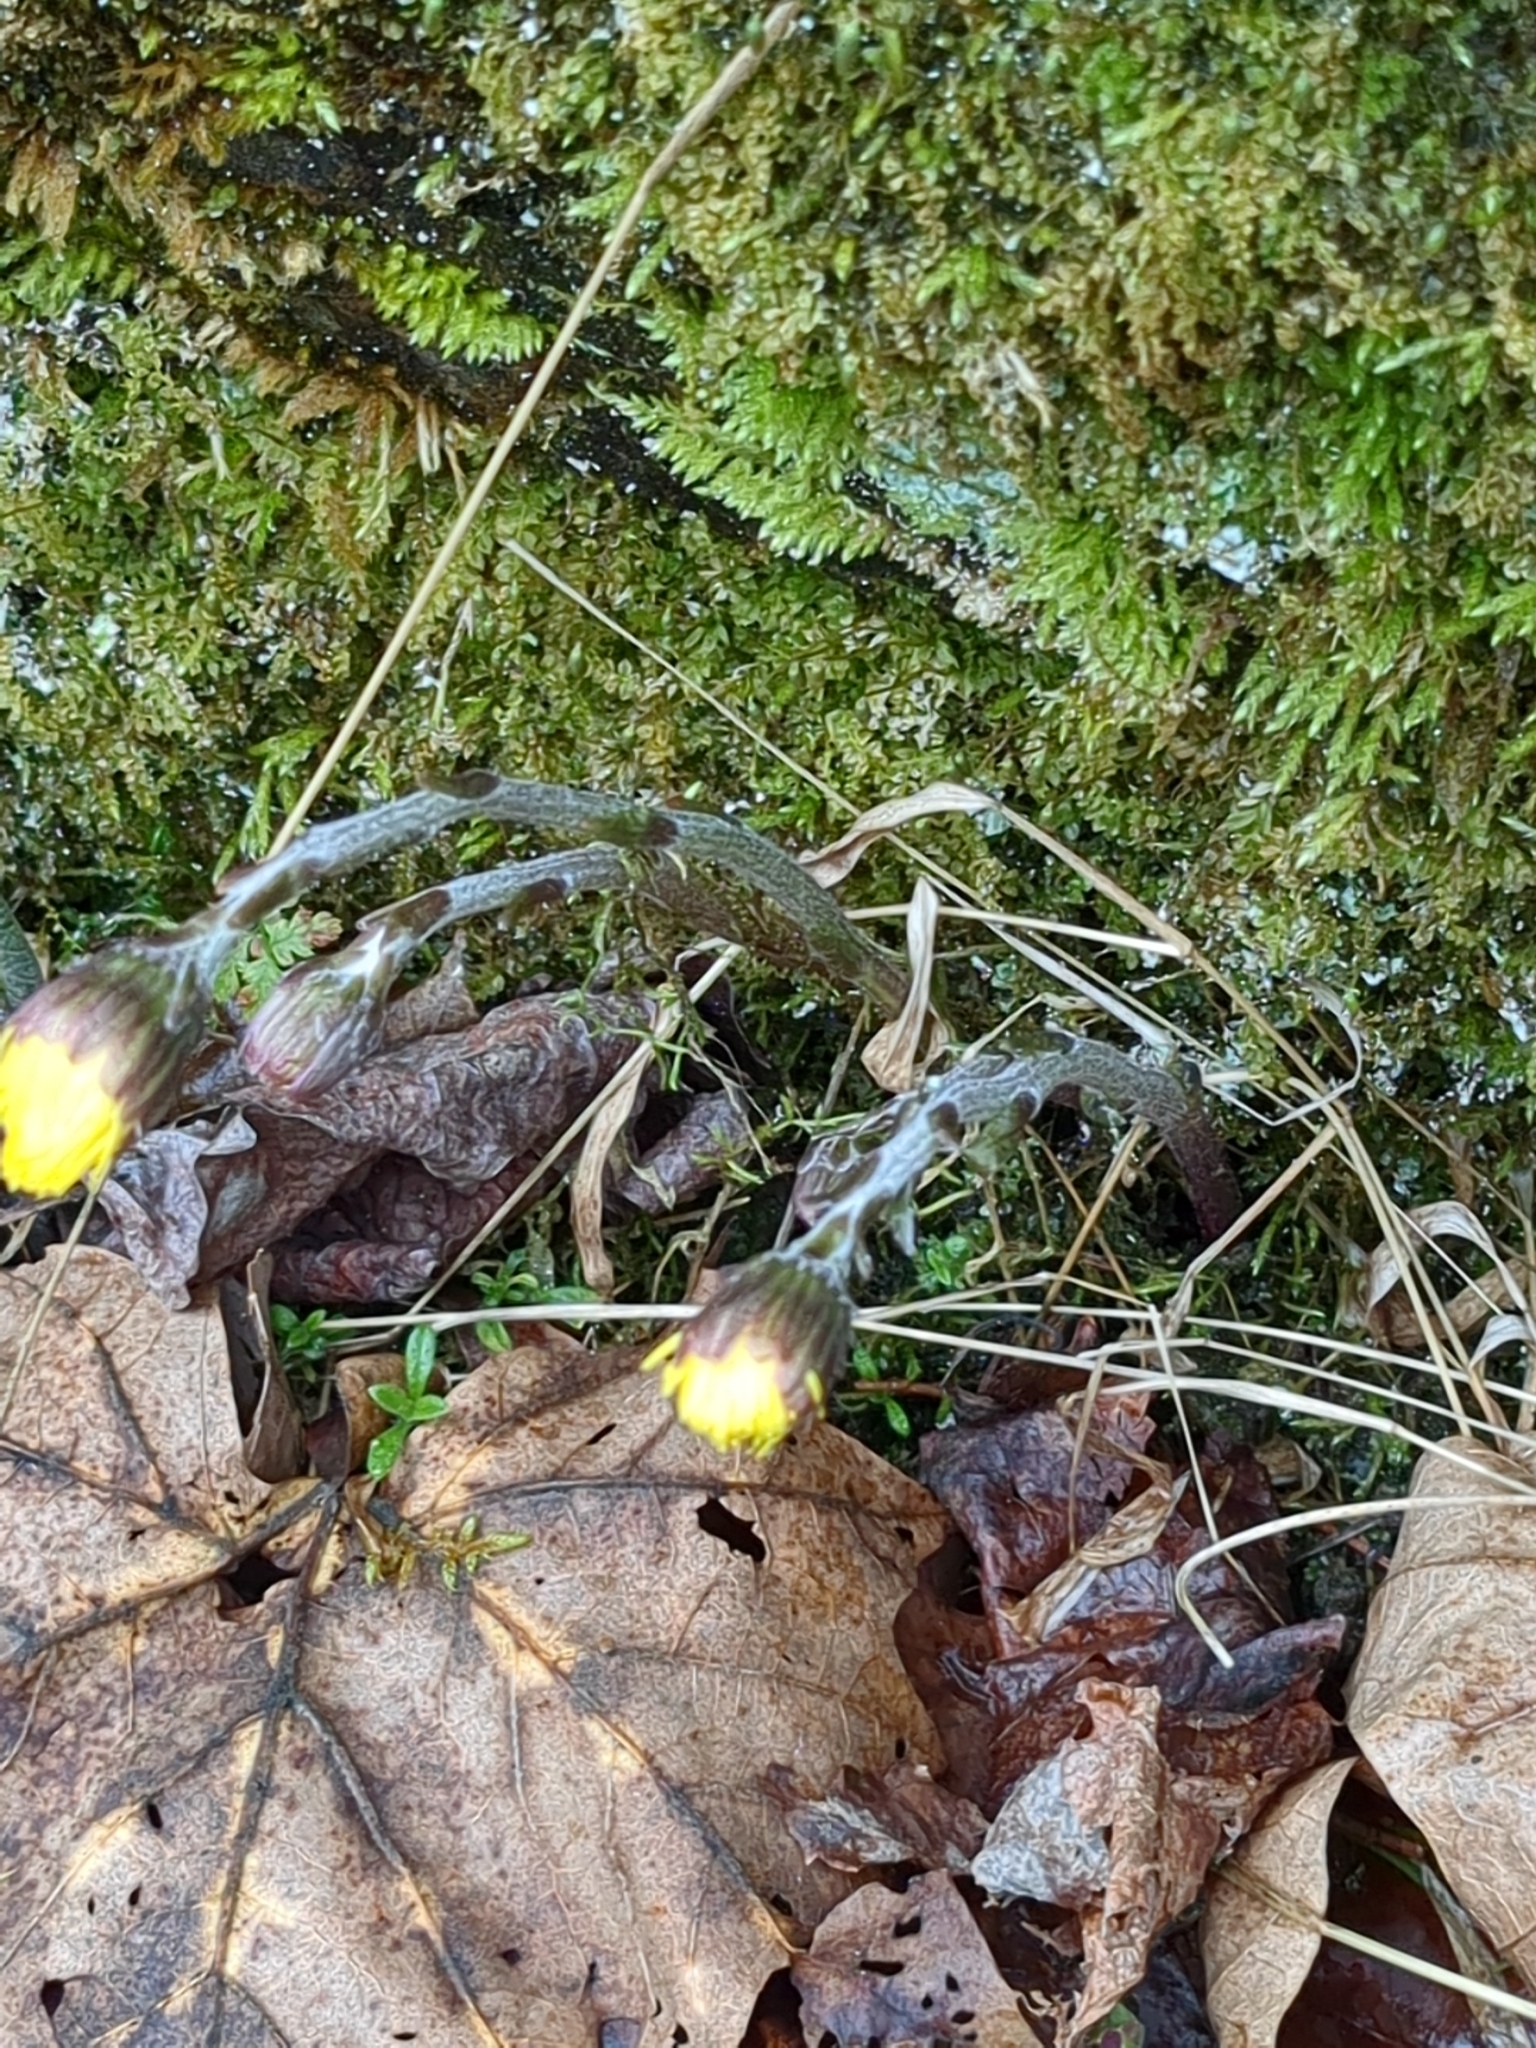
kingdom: Plantae
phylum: Tracheophyta
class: Magnoliopsida
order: Asterales
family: Asteraceae
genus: Tussilago
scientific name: Tussilago farfara
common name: Coltsfoot
